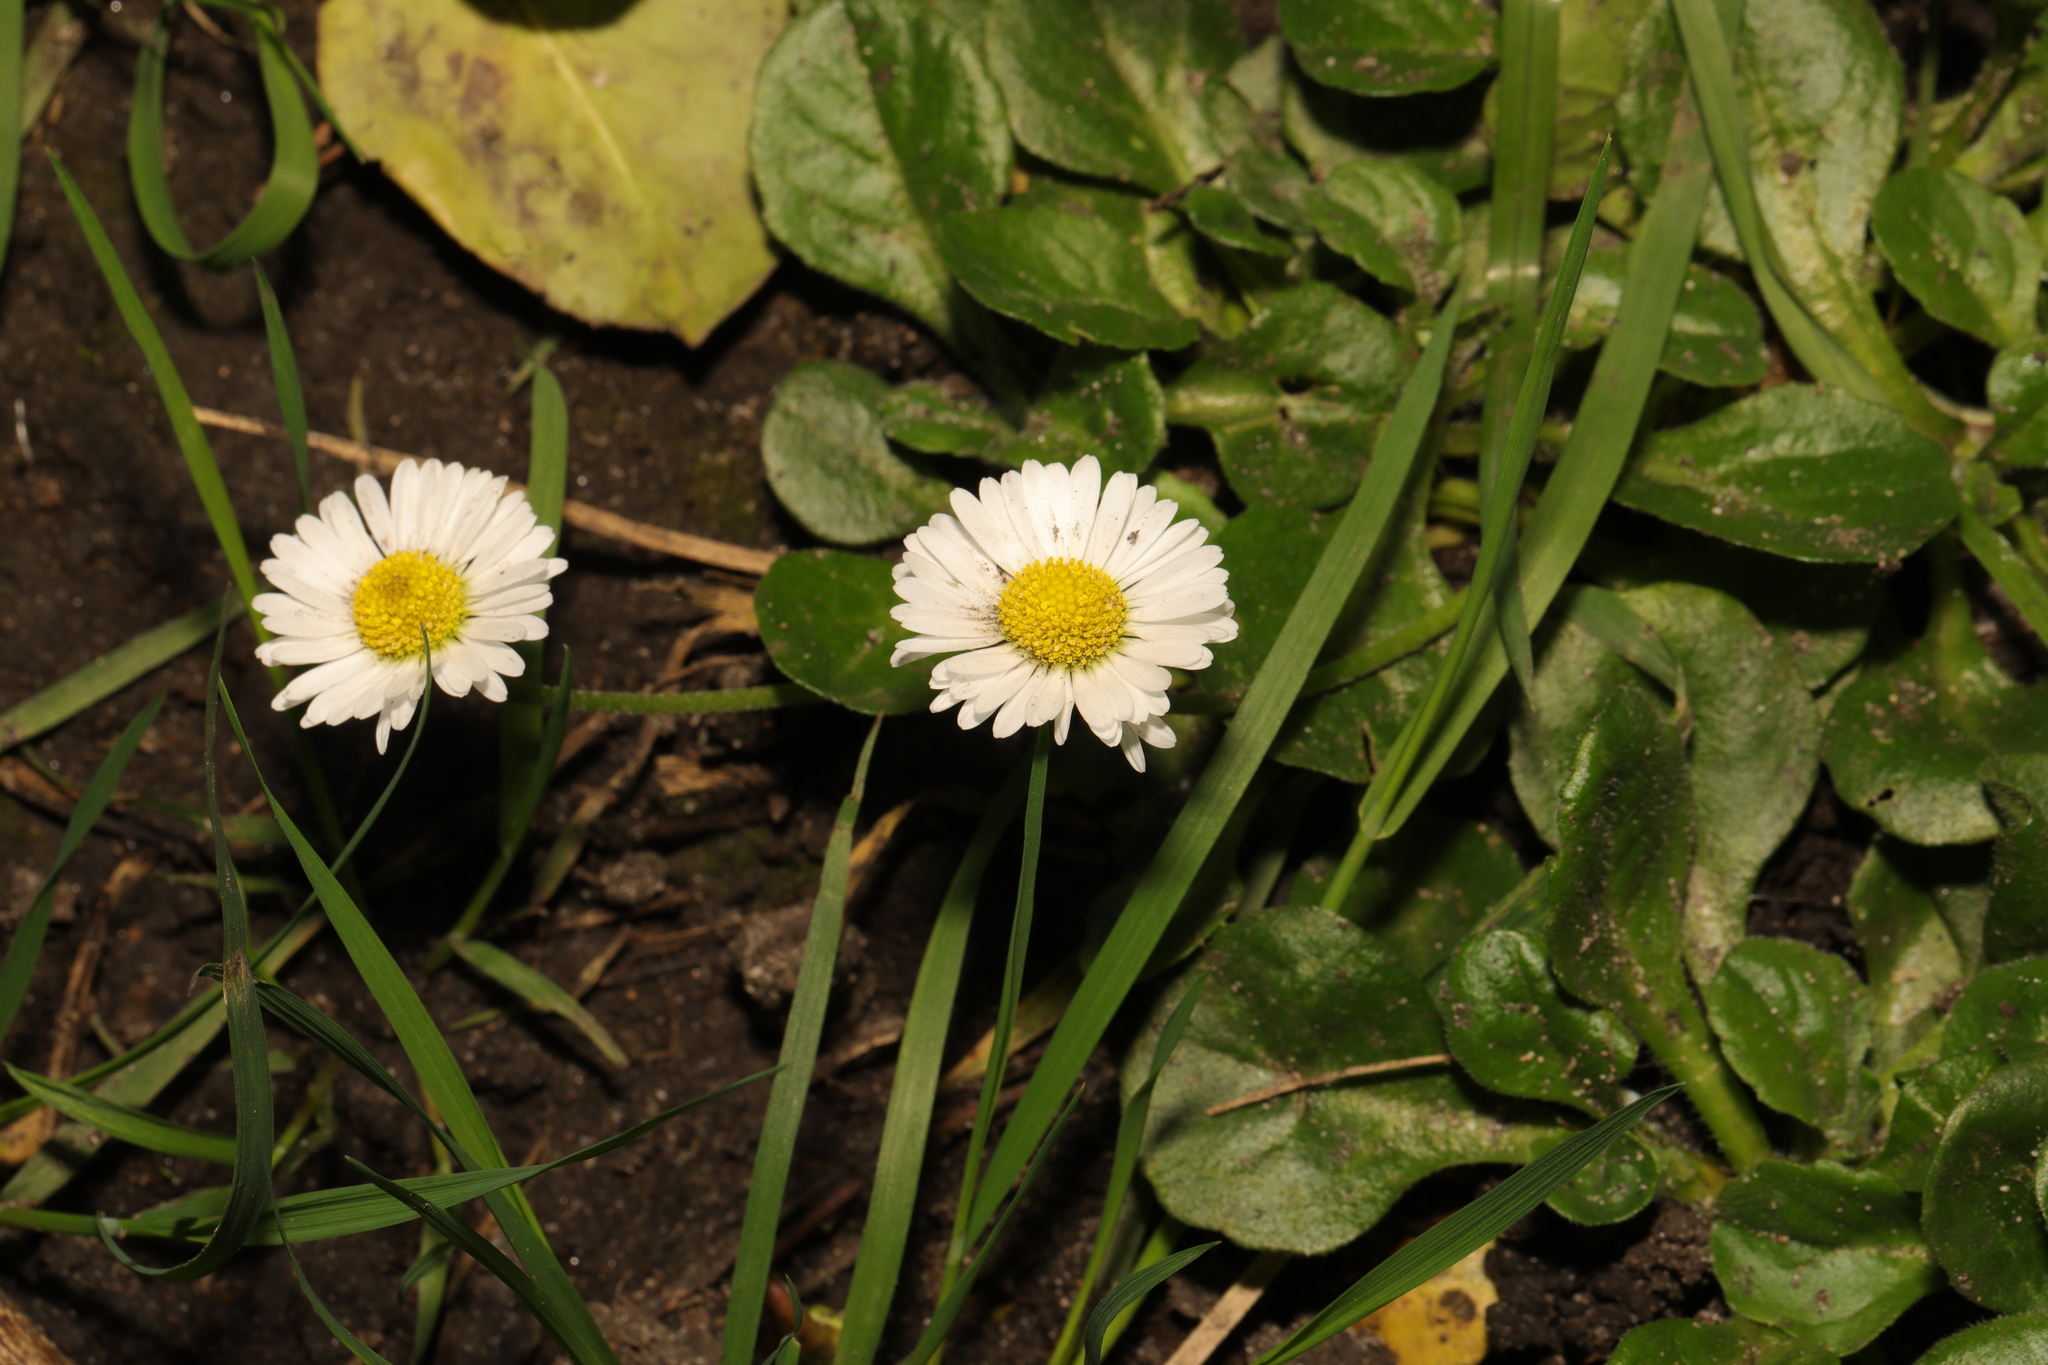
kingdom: Plantae
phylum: Tracheophyta
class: Magnoliopsida
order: Asterales
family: Asteraceae
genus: Bellis
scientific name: Bellis perennis
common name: Lawndaisy
